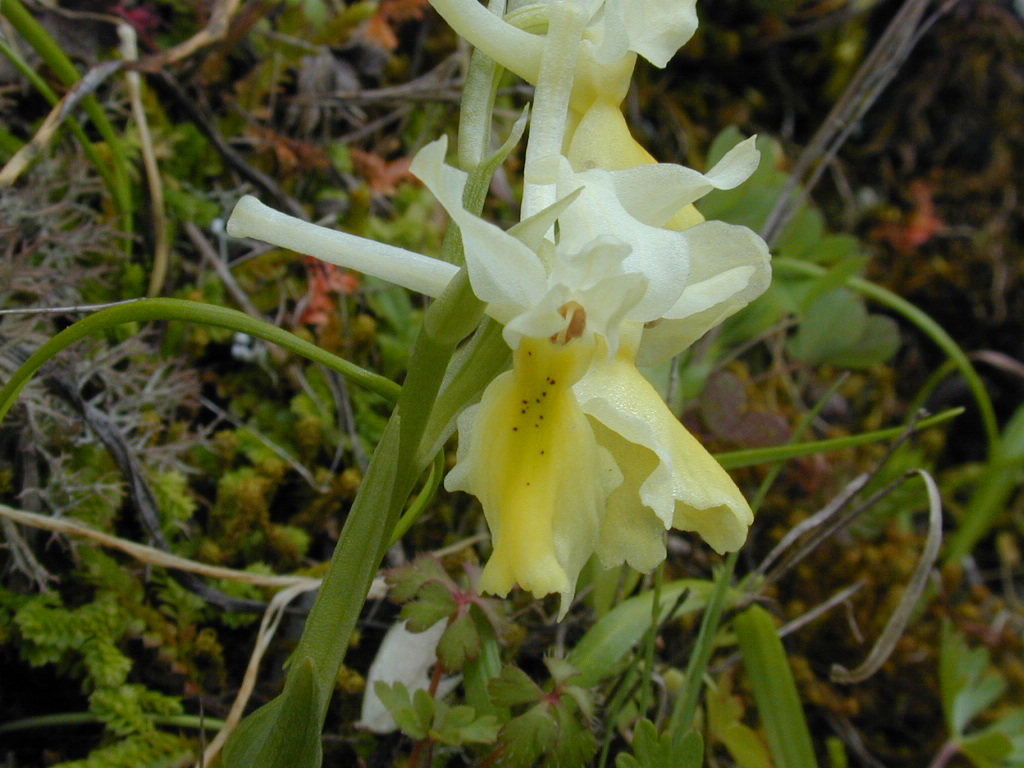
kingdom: Plantae
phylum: Tracheophyta
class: Liliopsida
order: Asparagales
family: Orchidaceae
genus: Orchis
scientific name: Orchis pauciflora
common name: Few-flowered orchid
